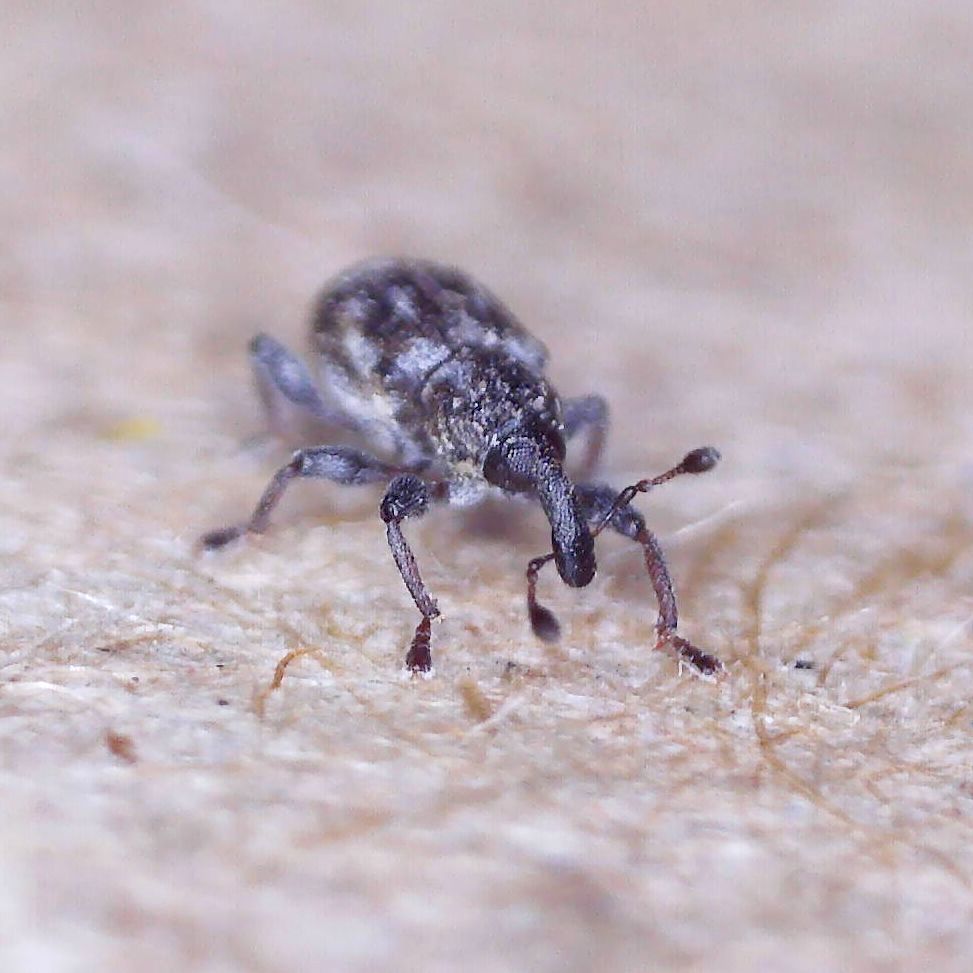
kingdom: Animalia
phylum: Arthropoda
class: Insecta
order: Coleoptera
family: Brachyceridae
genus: Tanysphyrus
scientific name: Tanysphyrus lemnae
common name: Duckweed weevil
